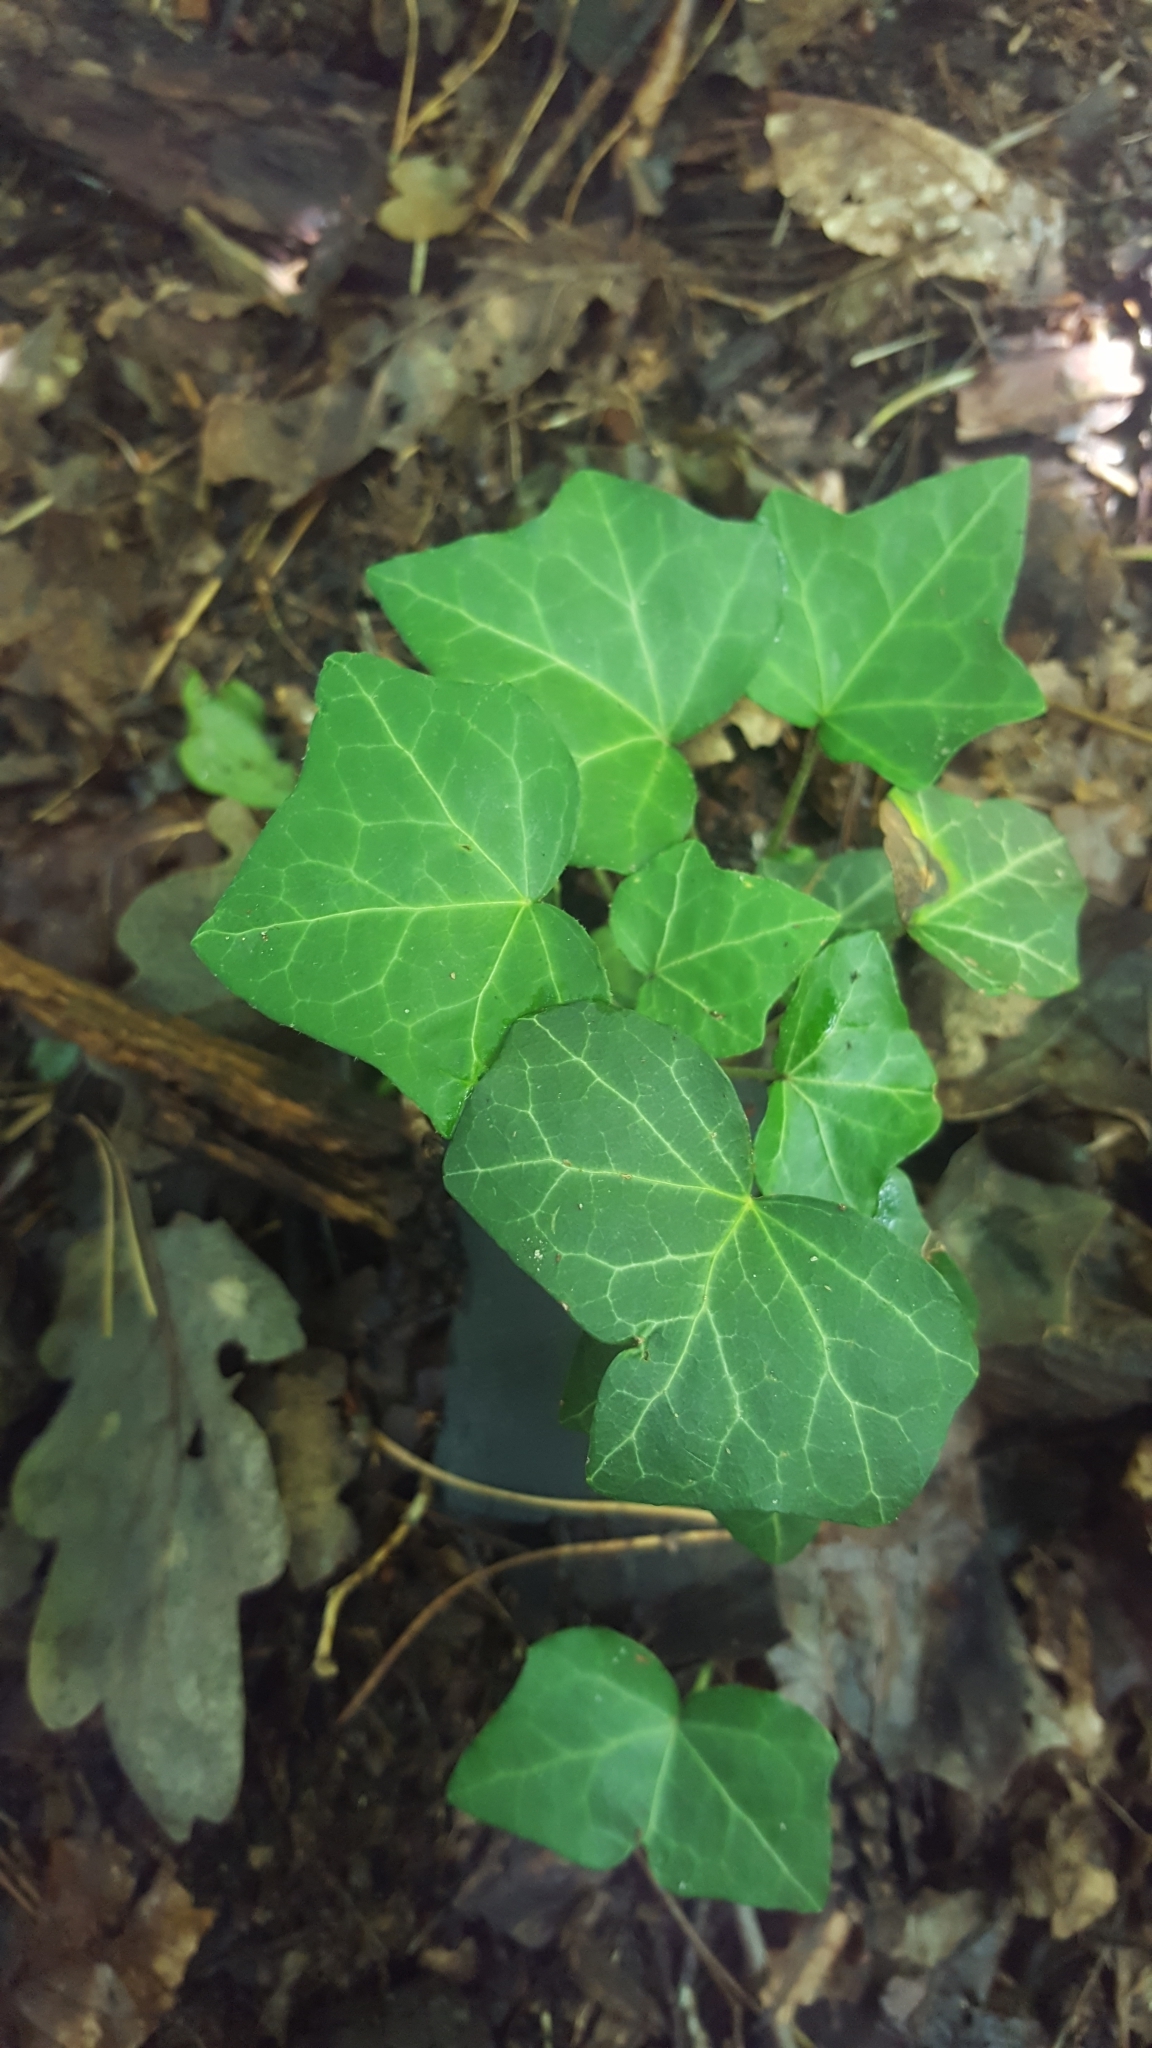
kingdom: Plantae
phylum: Tracheophyta
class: Magnoliopsida
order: Apiales
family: Araliaceae
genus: Hedera
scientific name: Hedera helix
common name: Ivy
